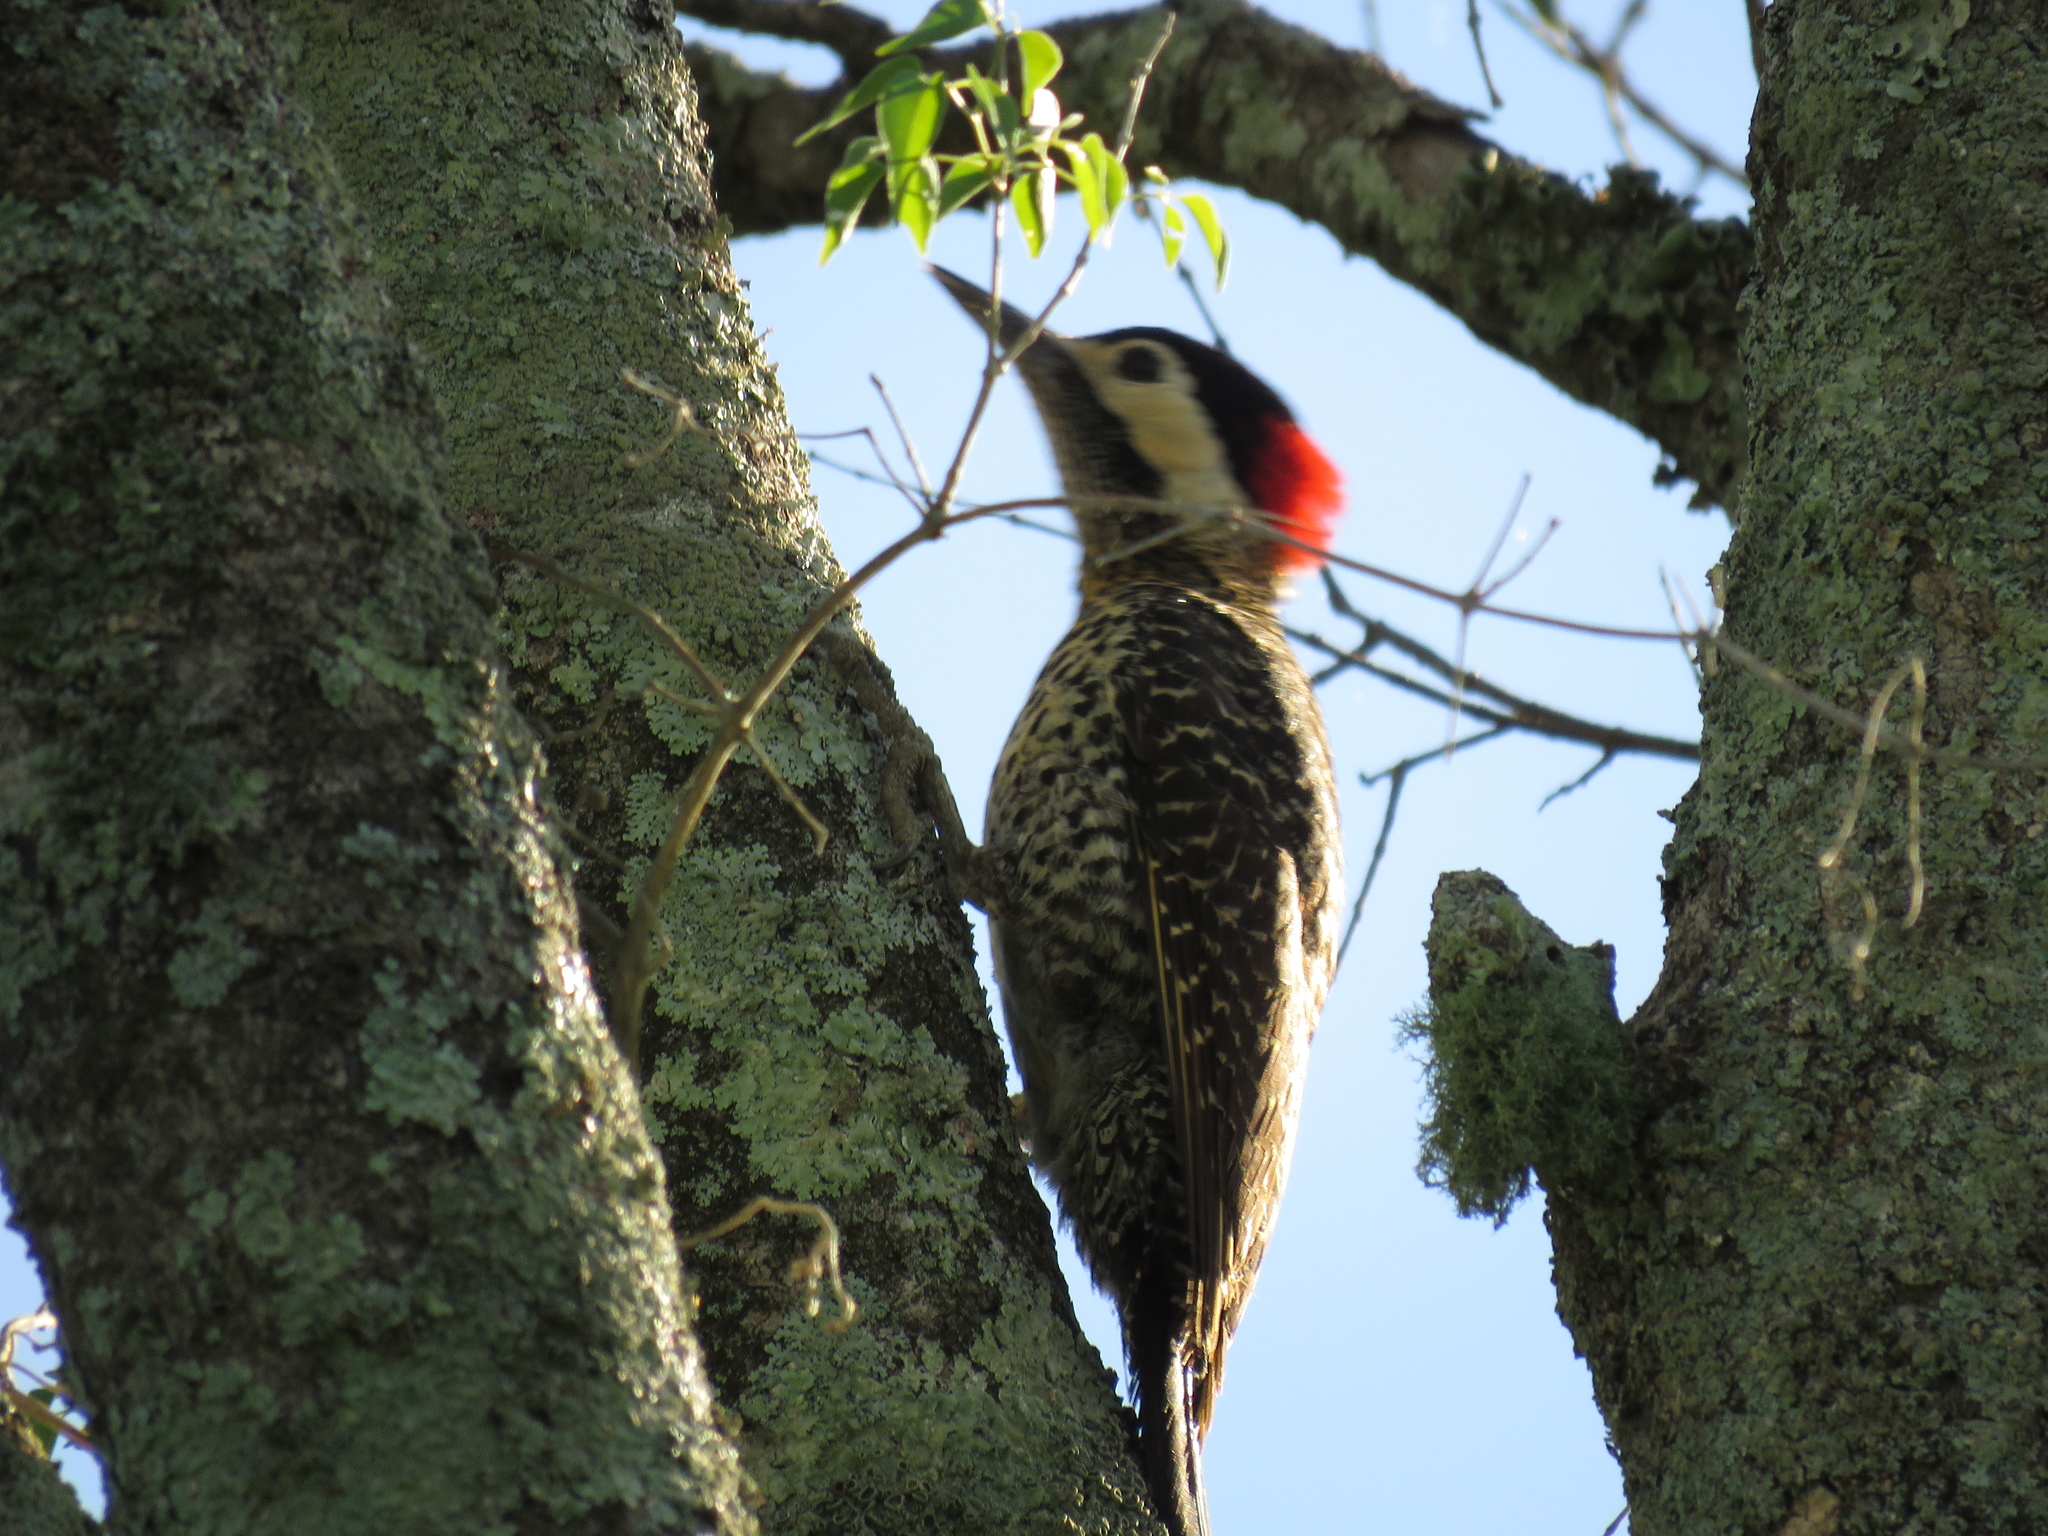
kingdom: Animalia
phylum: Chordata
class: Aves
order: Piciformes
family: Picidae
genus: Colaptes
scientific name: Colaptes melanochloros
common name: Green-barred woodpecker
